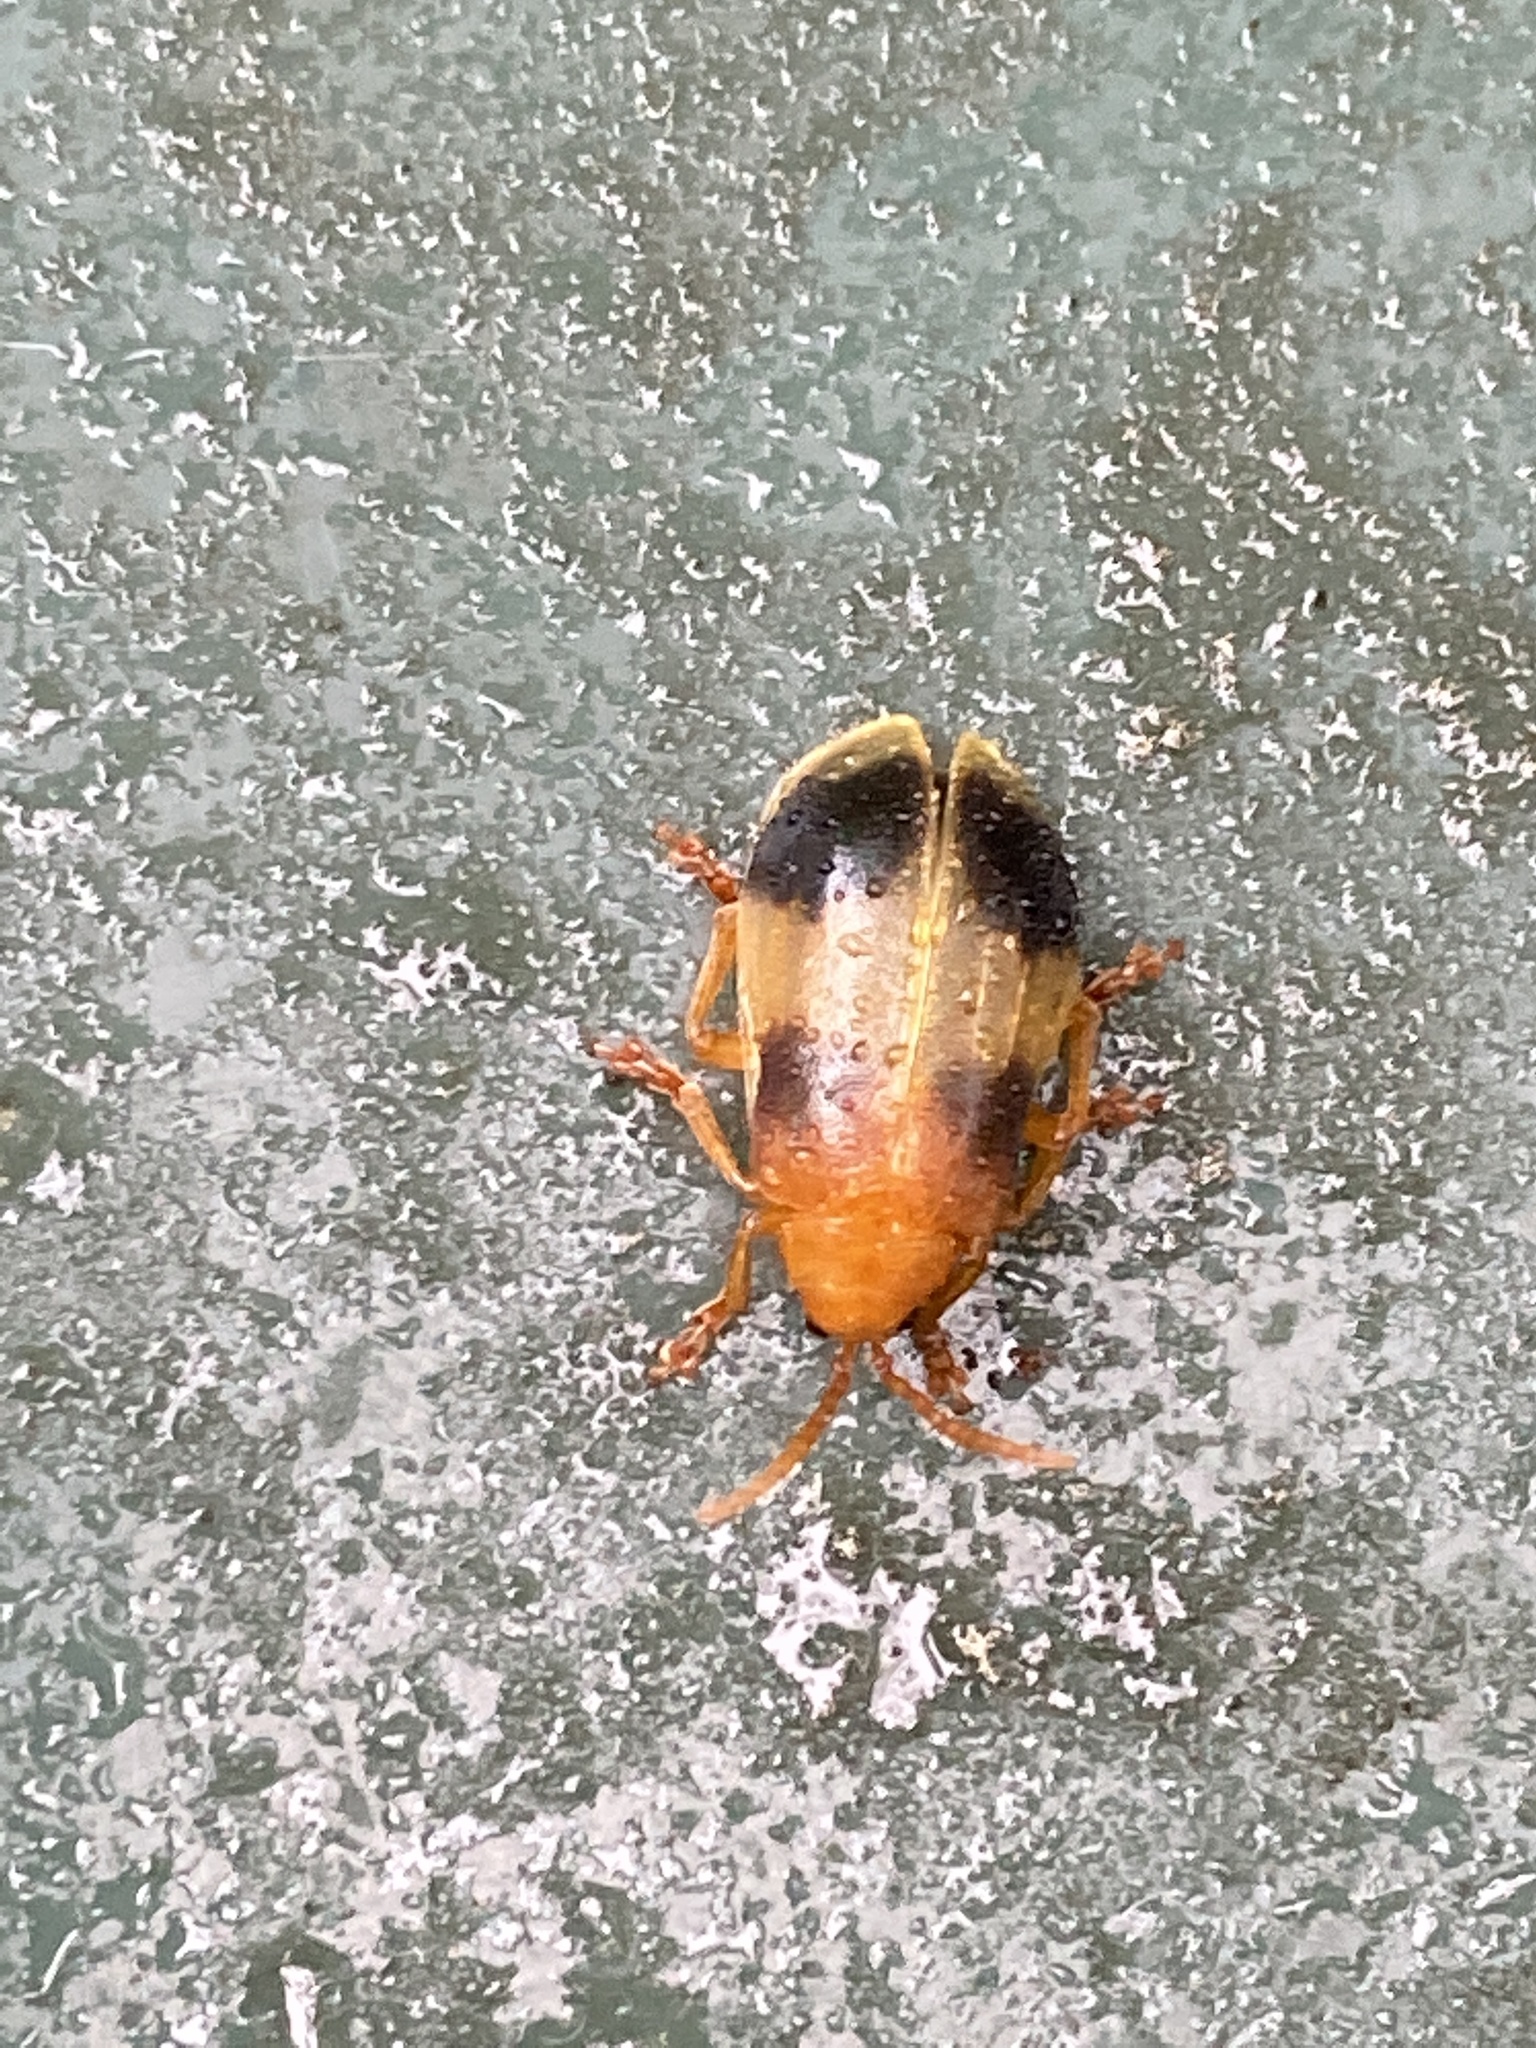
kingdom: Animalia
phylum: Arthropoda
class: Insecta
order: Coleoptera
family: Chrysomelidae
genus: Monocesta
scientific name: Monocesta coryli
